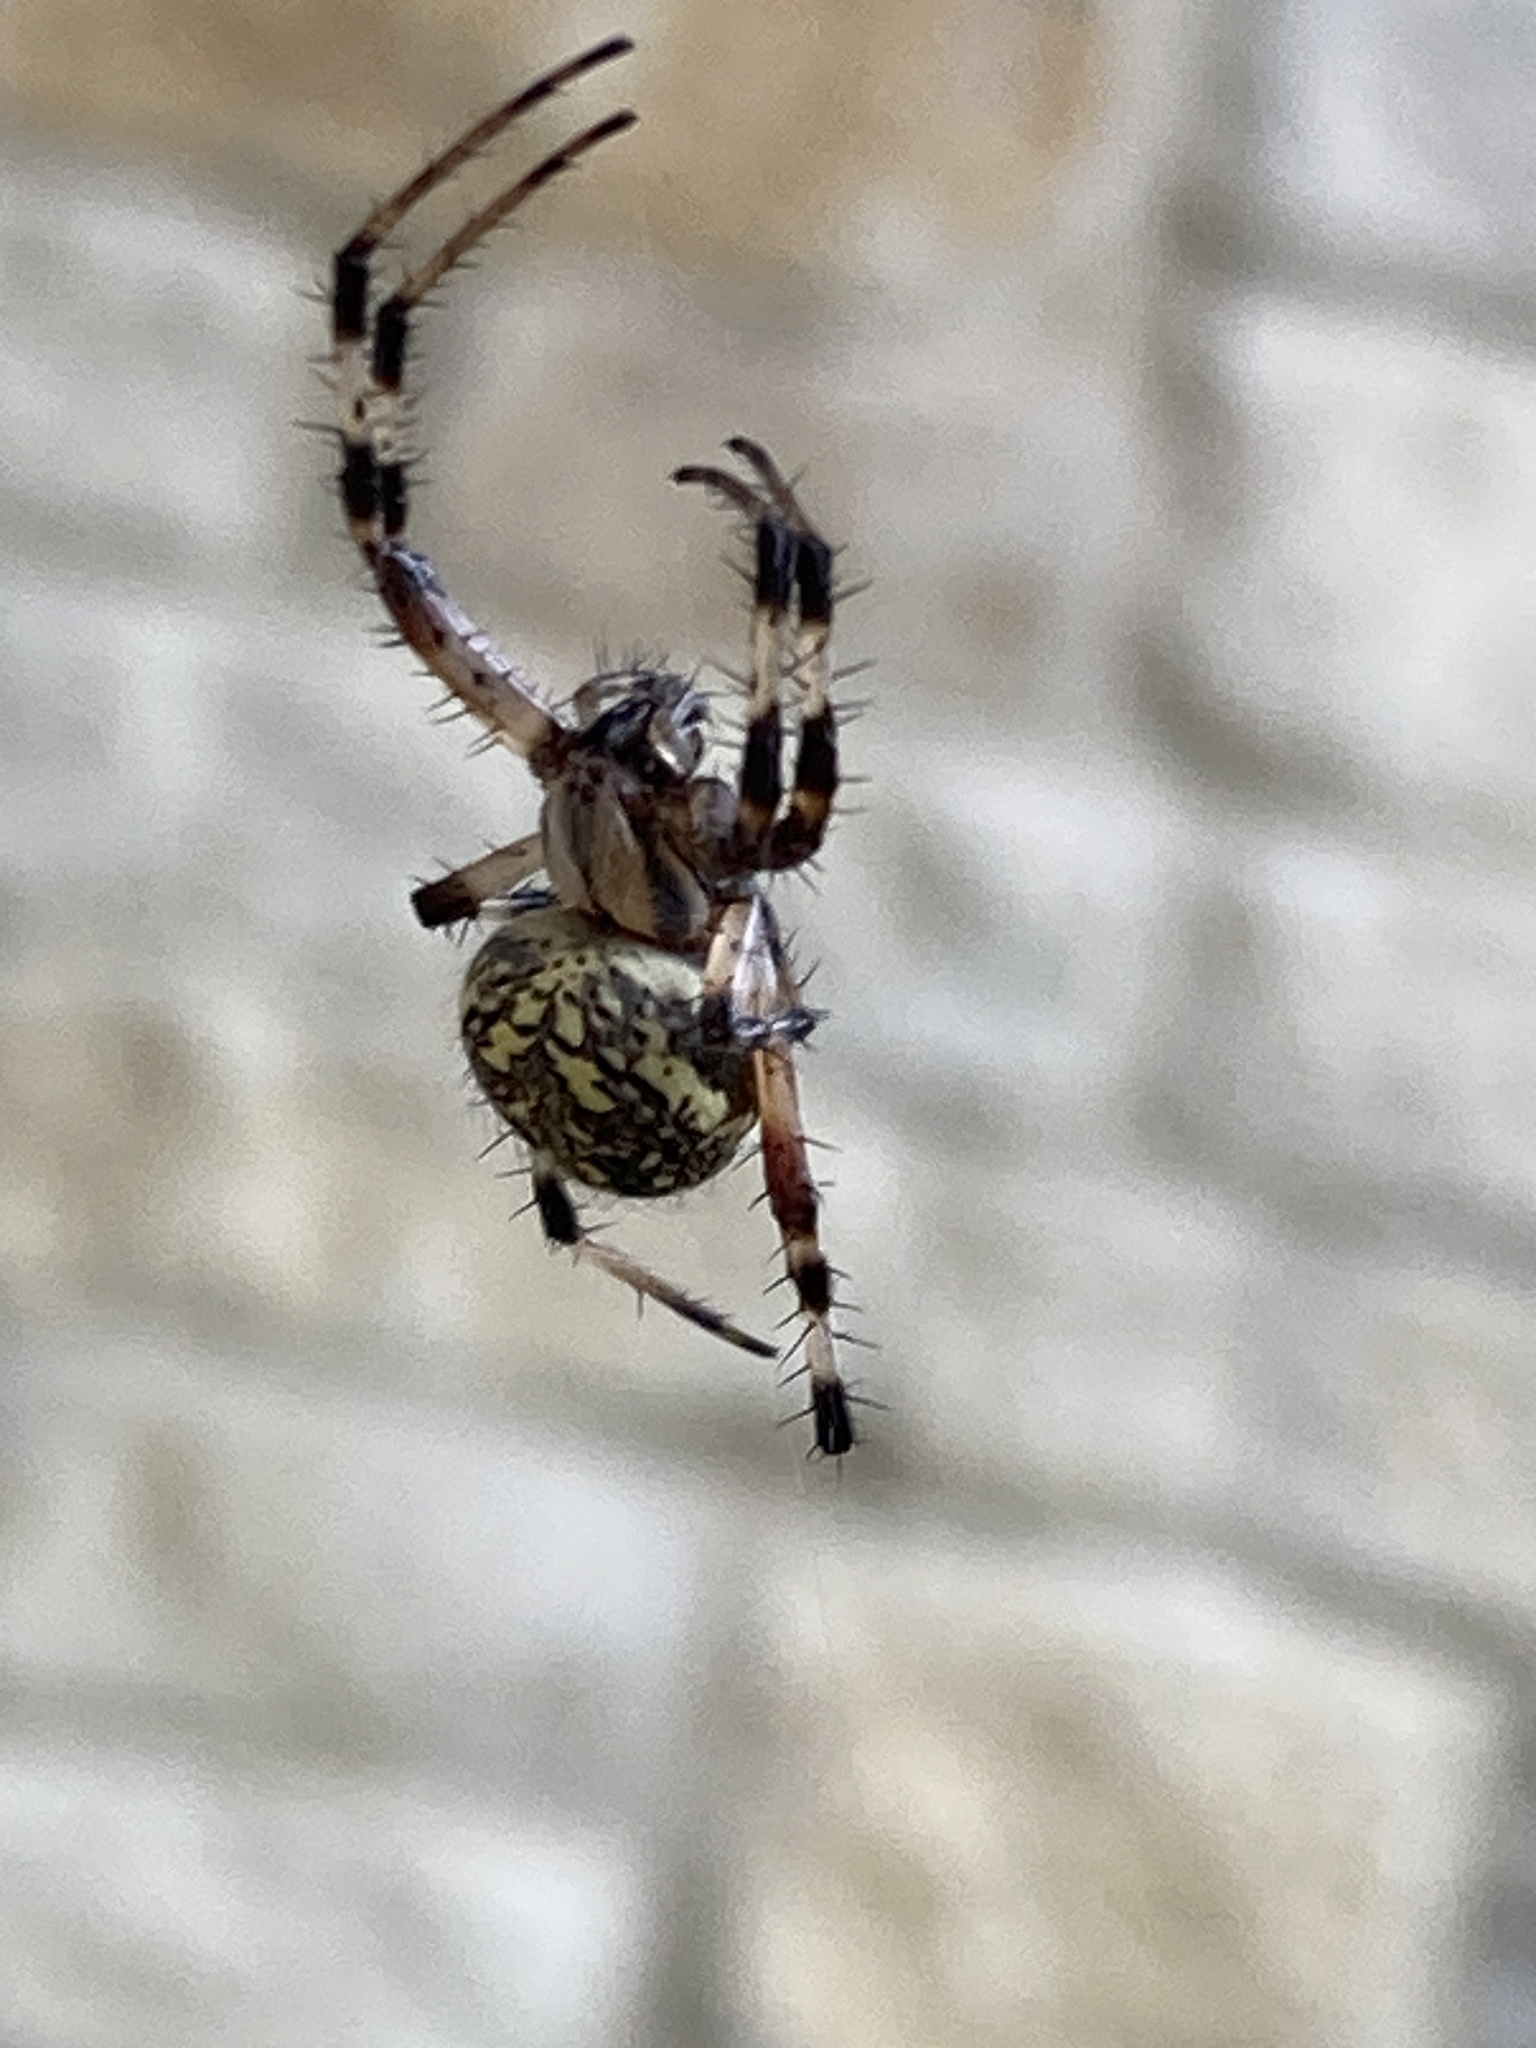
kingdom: Animalia
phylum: Arthropoda
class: Arachnida
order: Araneae
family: Araneidae
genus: Neoscona
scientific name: Neoscona oaxacensis
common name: Orb weavers
